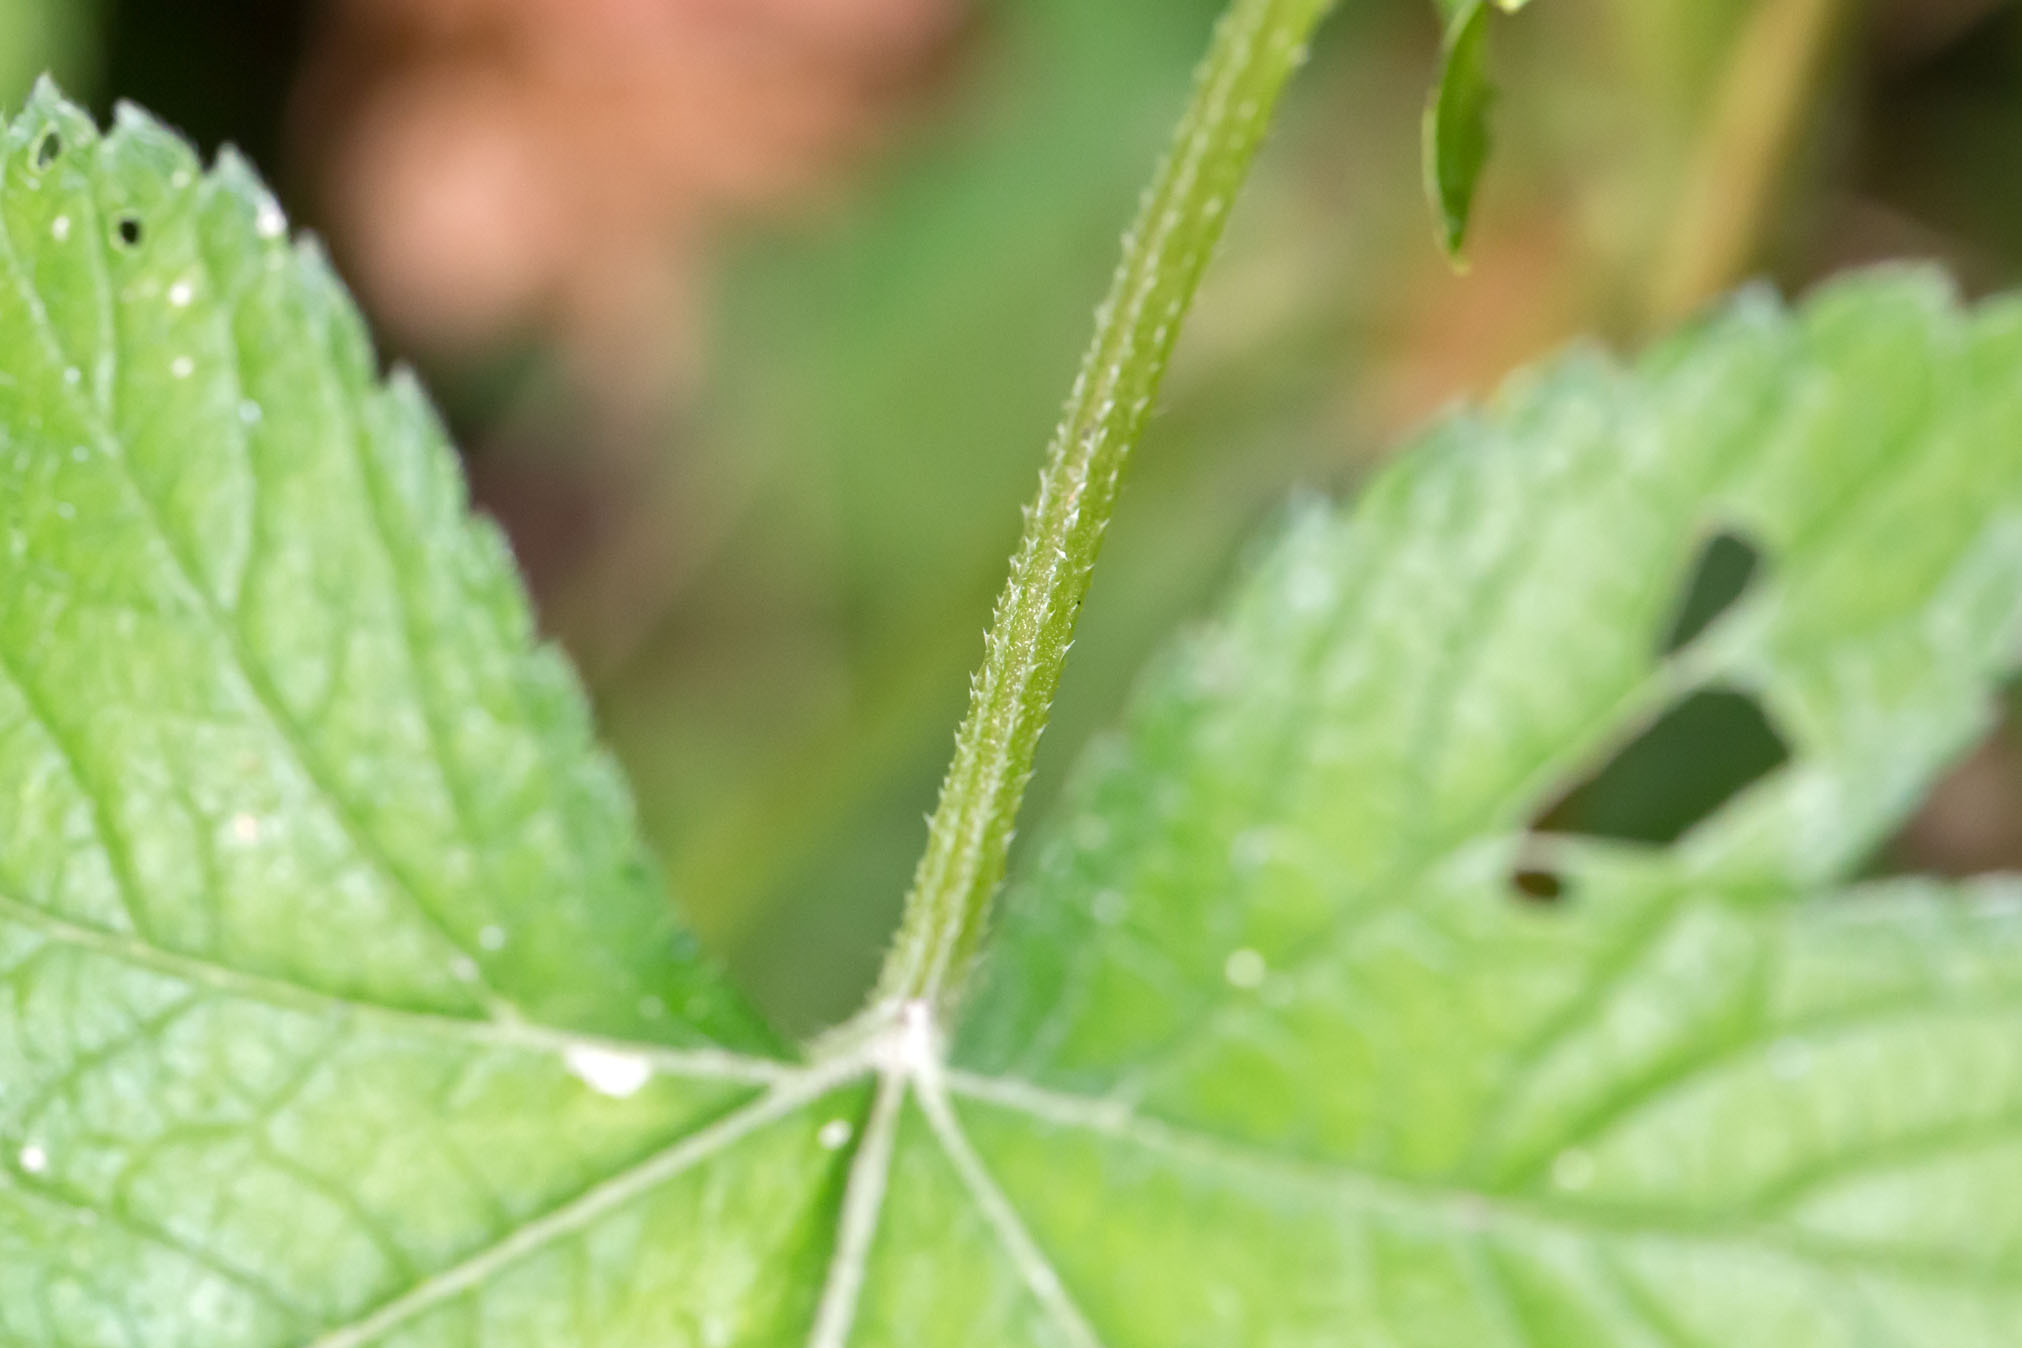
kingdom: Plantae
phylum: Tracheophyta
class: Magnoliopsida
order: Rosales
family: Cannabaceae
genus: Humulus
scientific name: Humulus scandens
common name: Japanese hop
